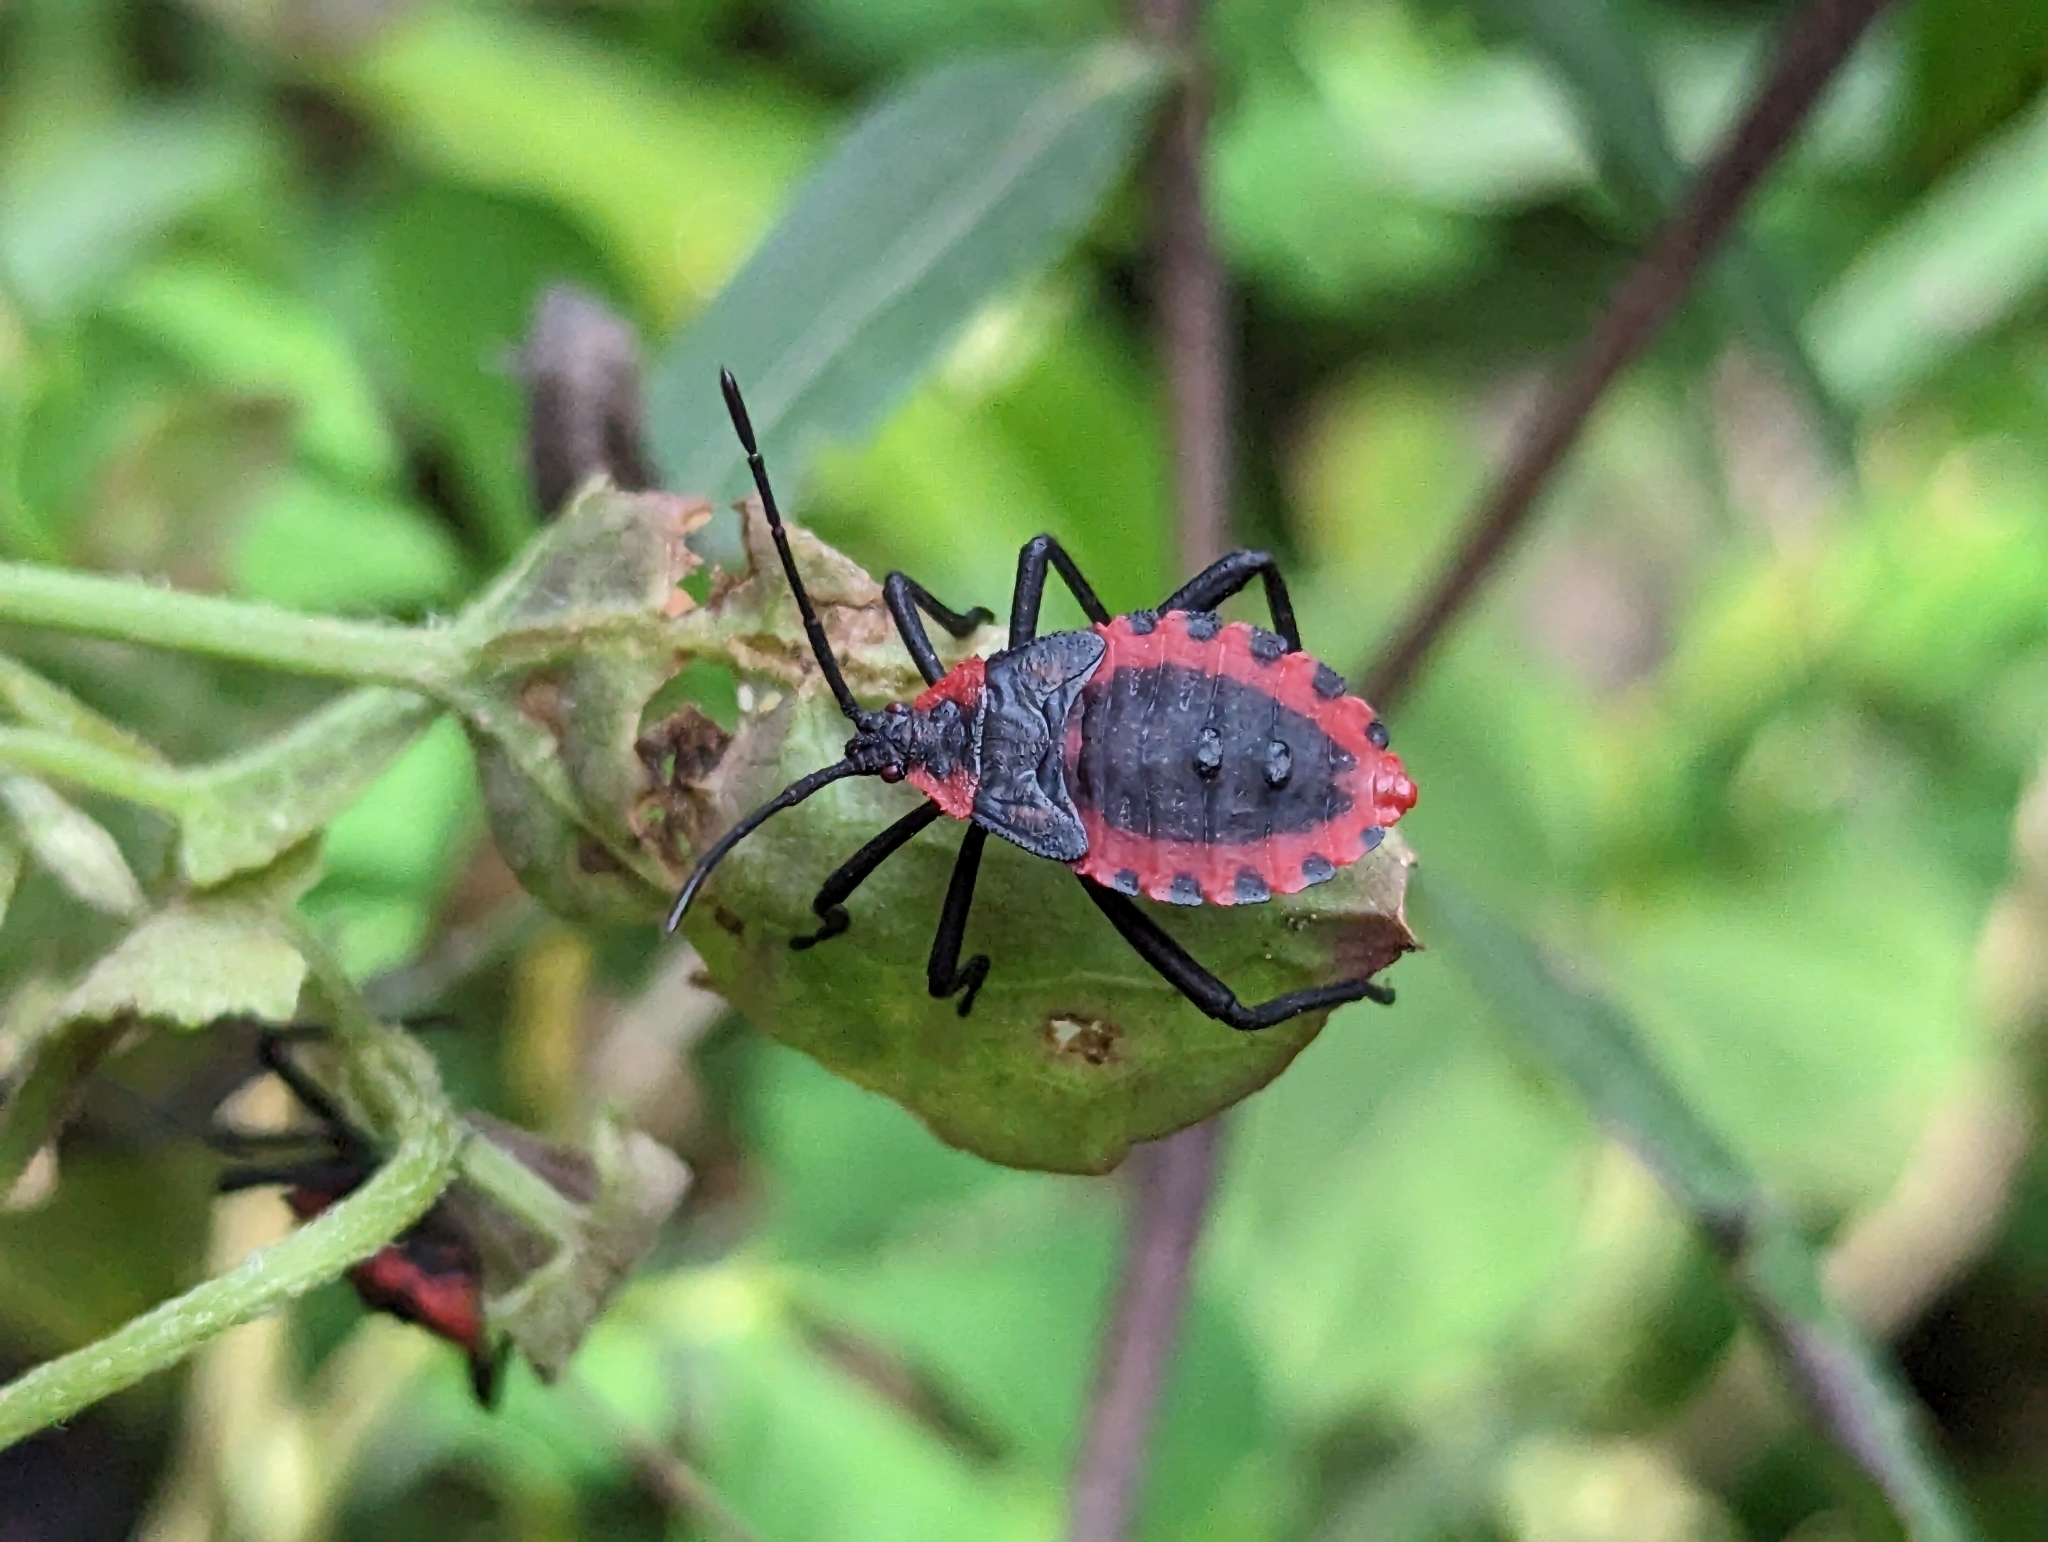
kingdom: Animalia
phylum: Arthropoda
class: Insecta
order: Hemiptera
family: Coreidae
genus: Piezogaster
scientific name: Piezogaster rubropictus
